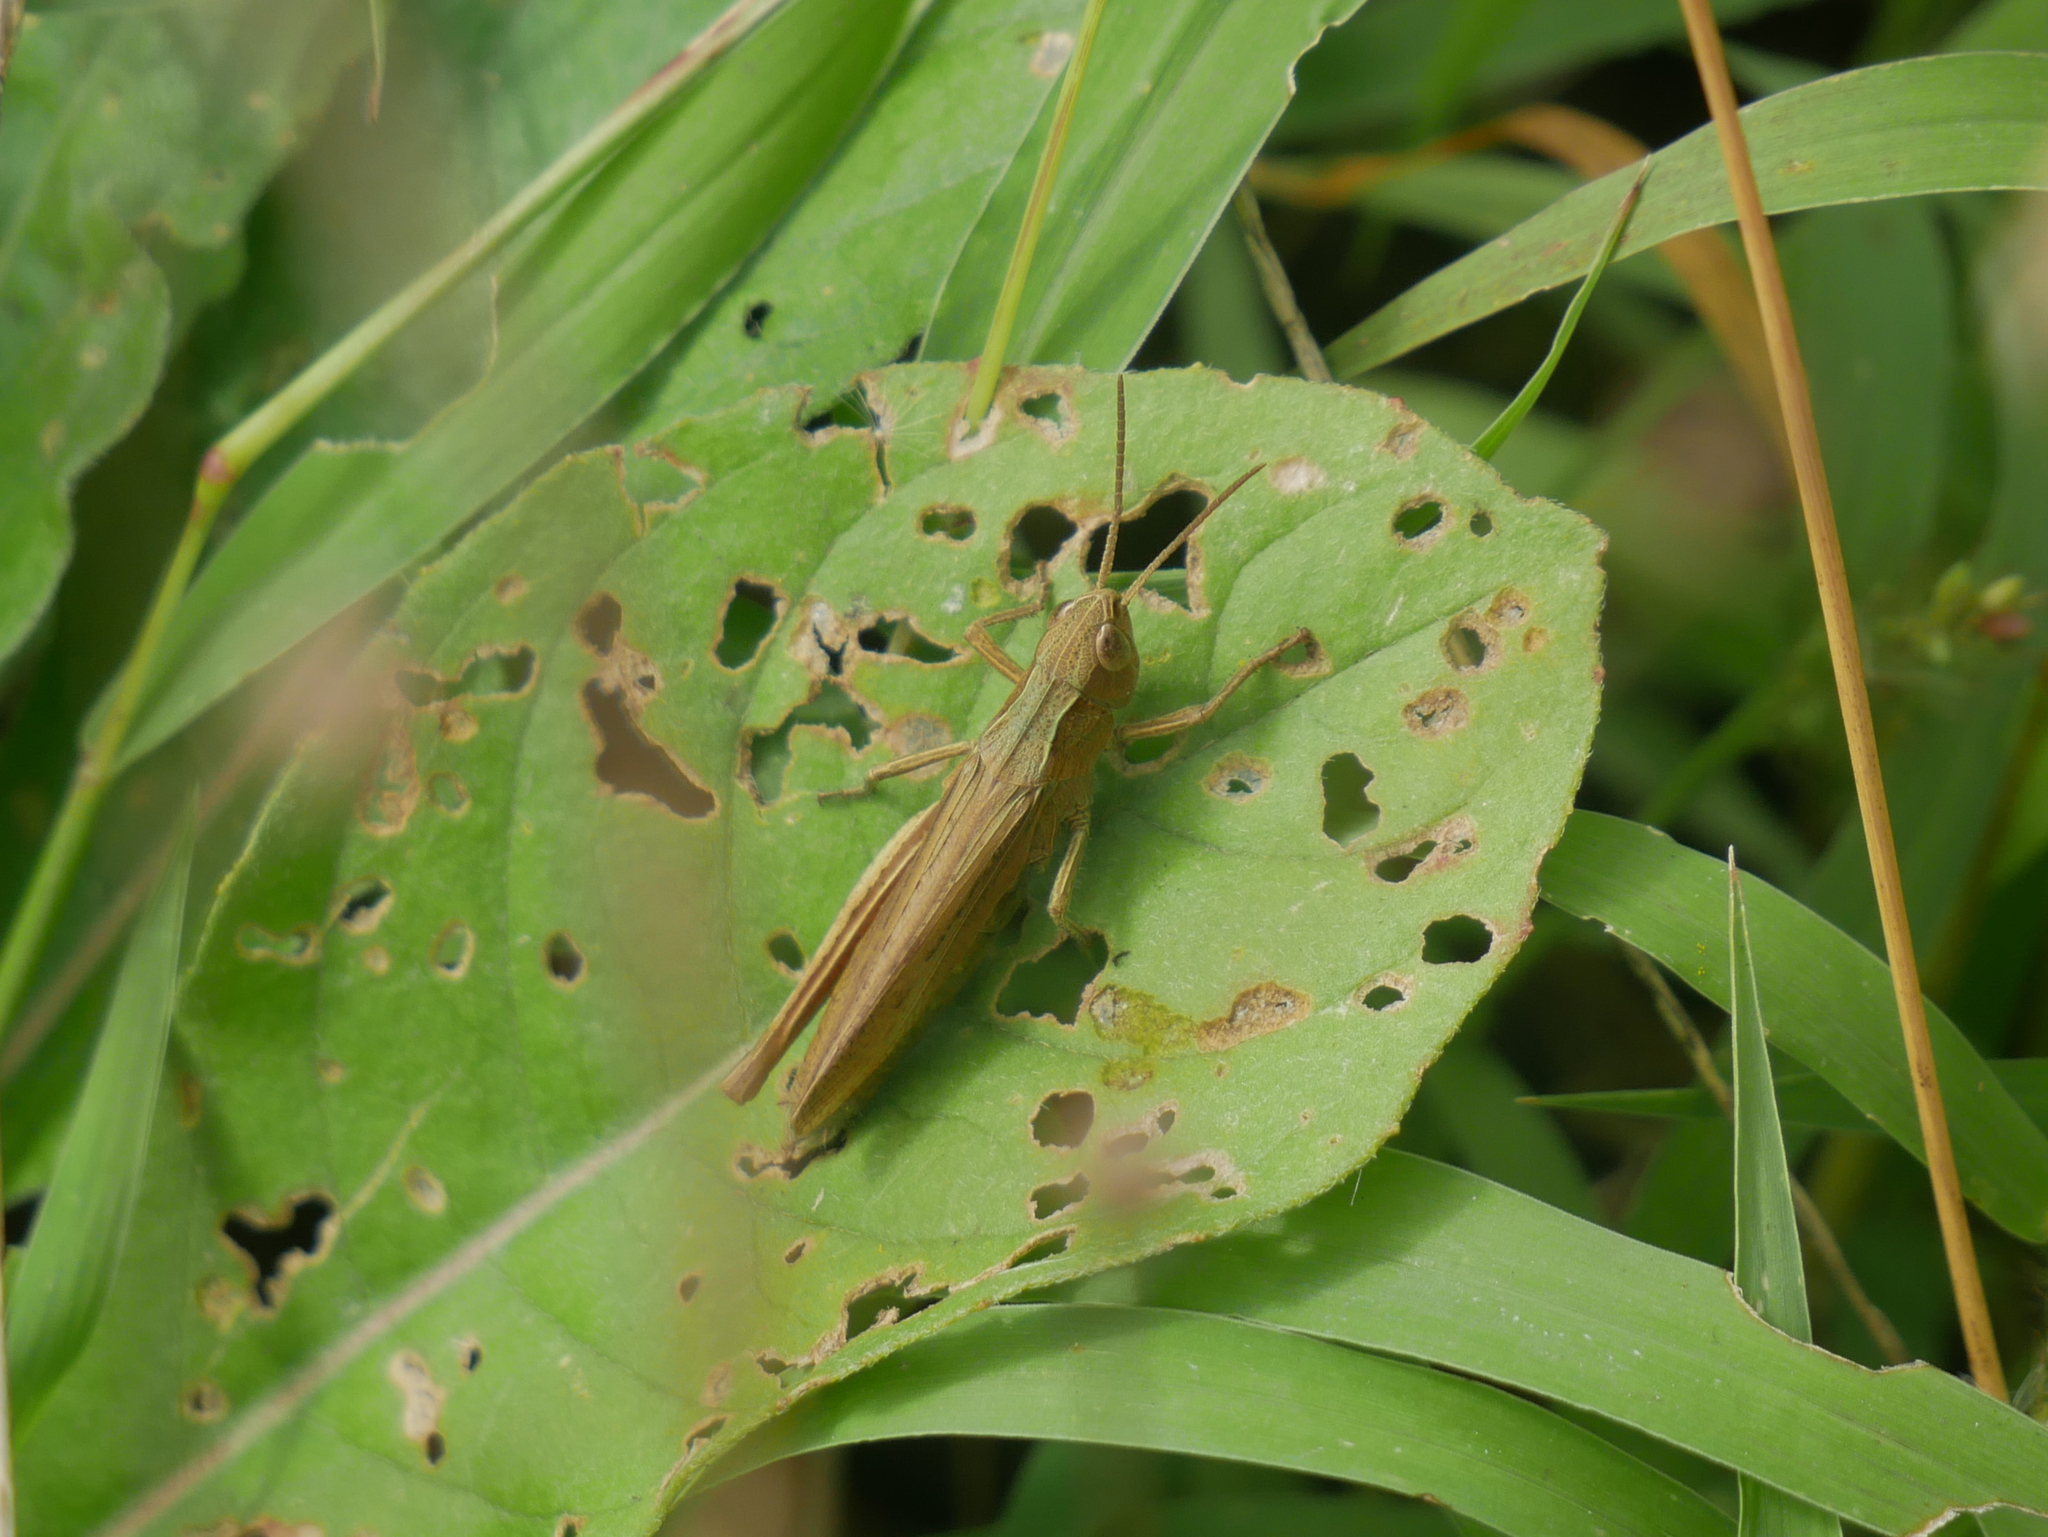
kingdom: Animalia
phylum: Arthropoda
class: Insecta
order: Orthoptera
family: Acrididae
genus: Chorthippus
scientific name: Chorthippus dorsatus
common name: Steppe grasshopper
